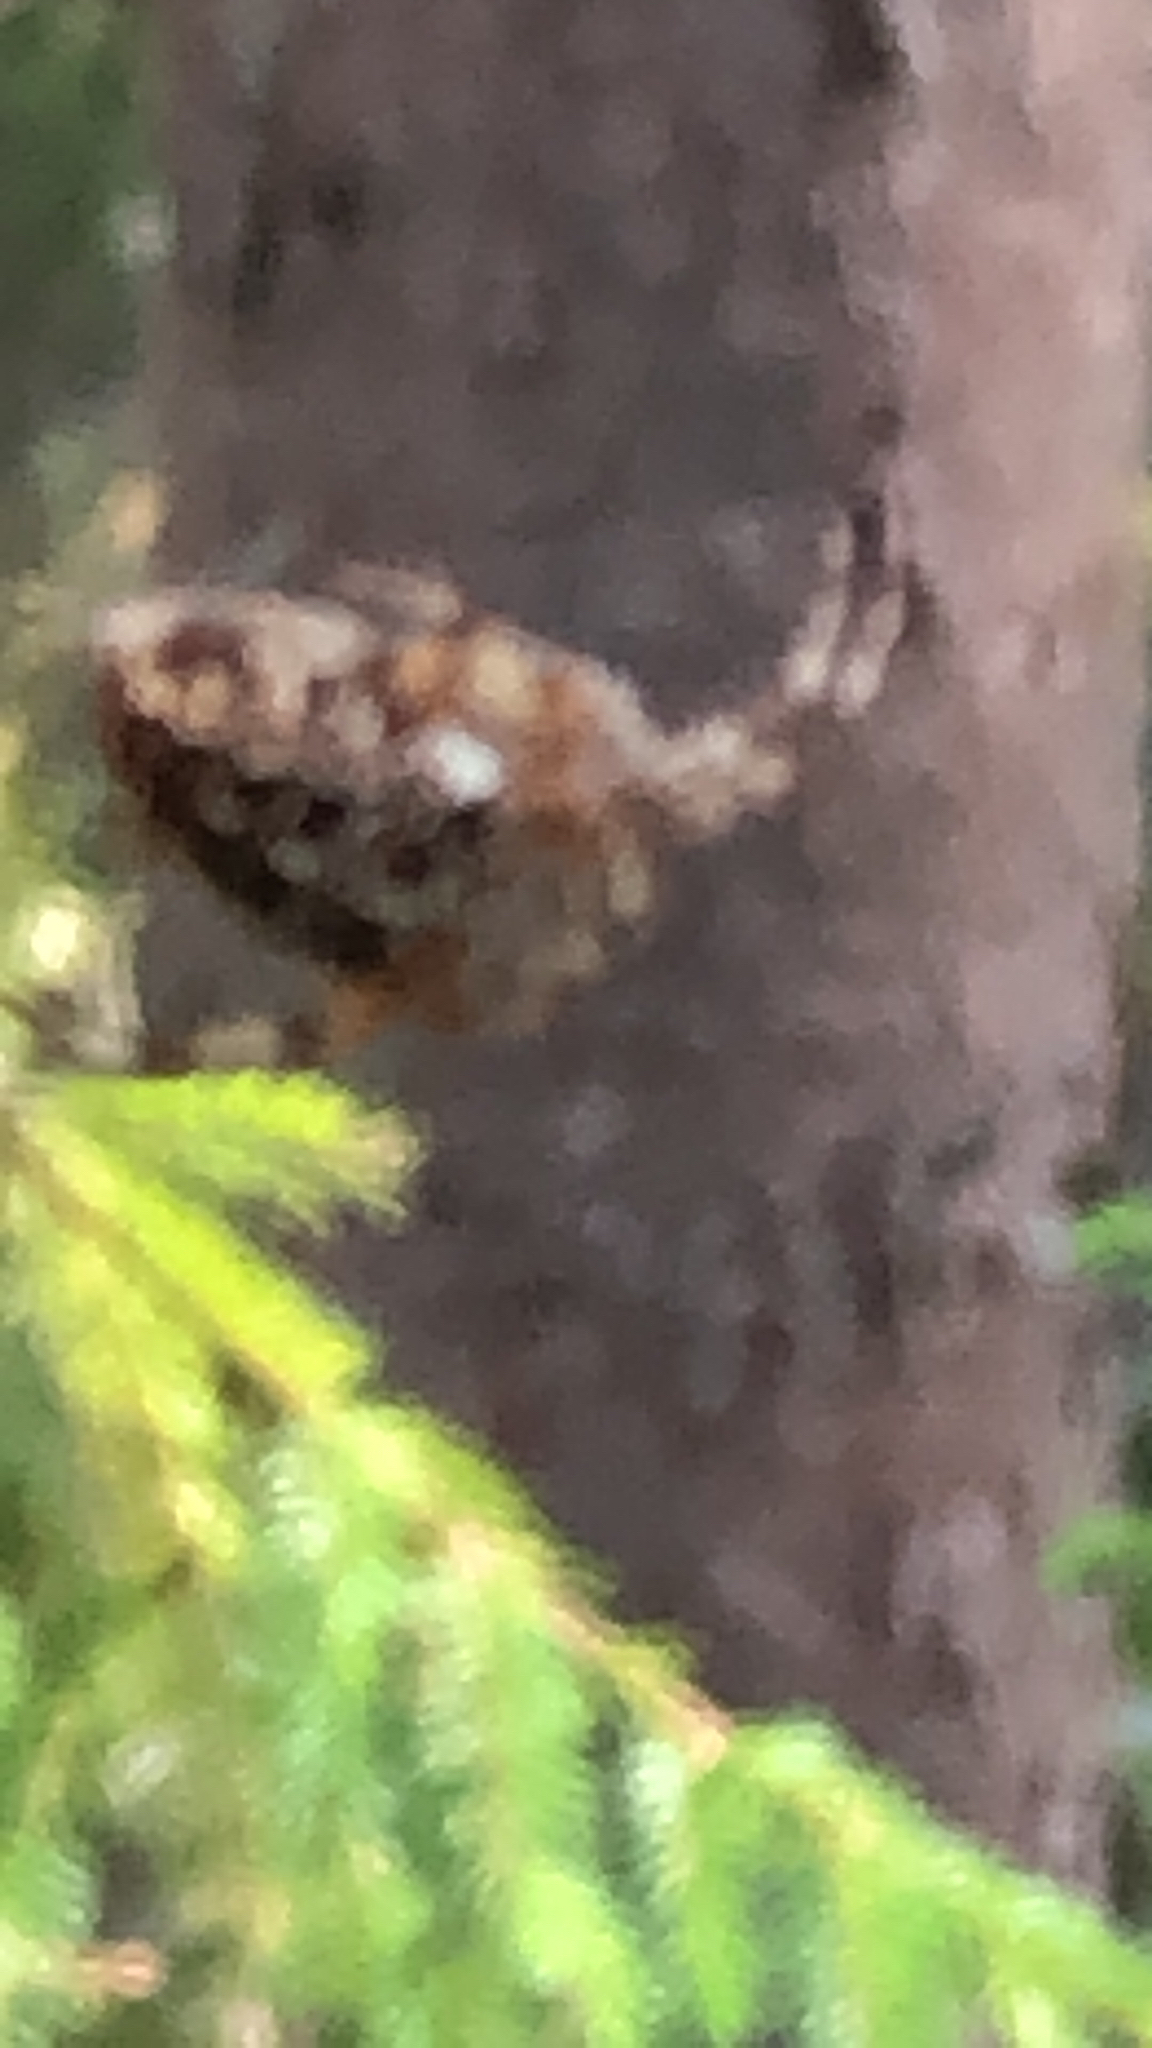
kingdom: Animalia
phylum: Arthropoda
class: Arachnida
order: Araneae
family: Araneidae
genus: Araneus
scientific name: Araneus diadematus
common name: Cross orbweaver
